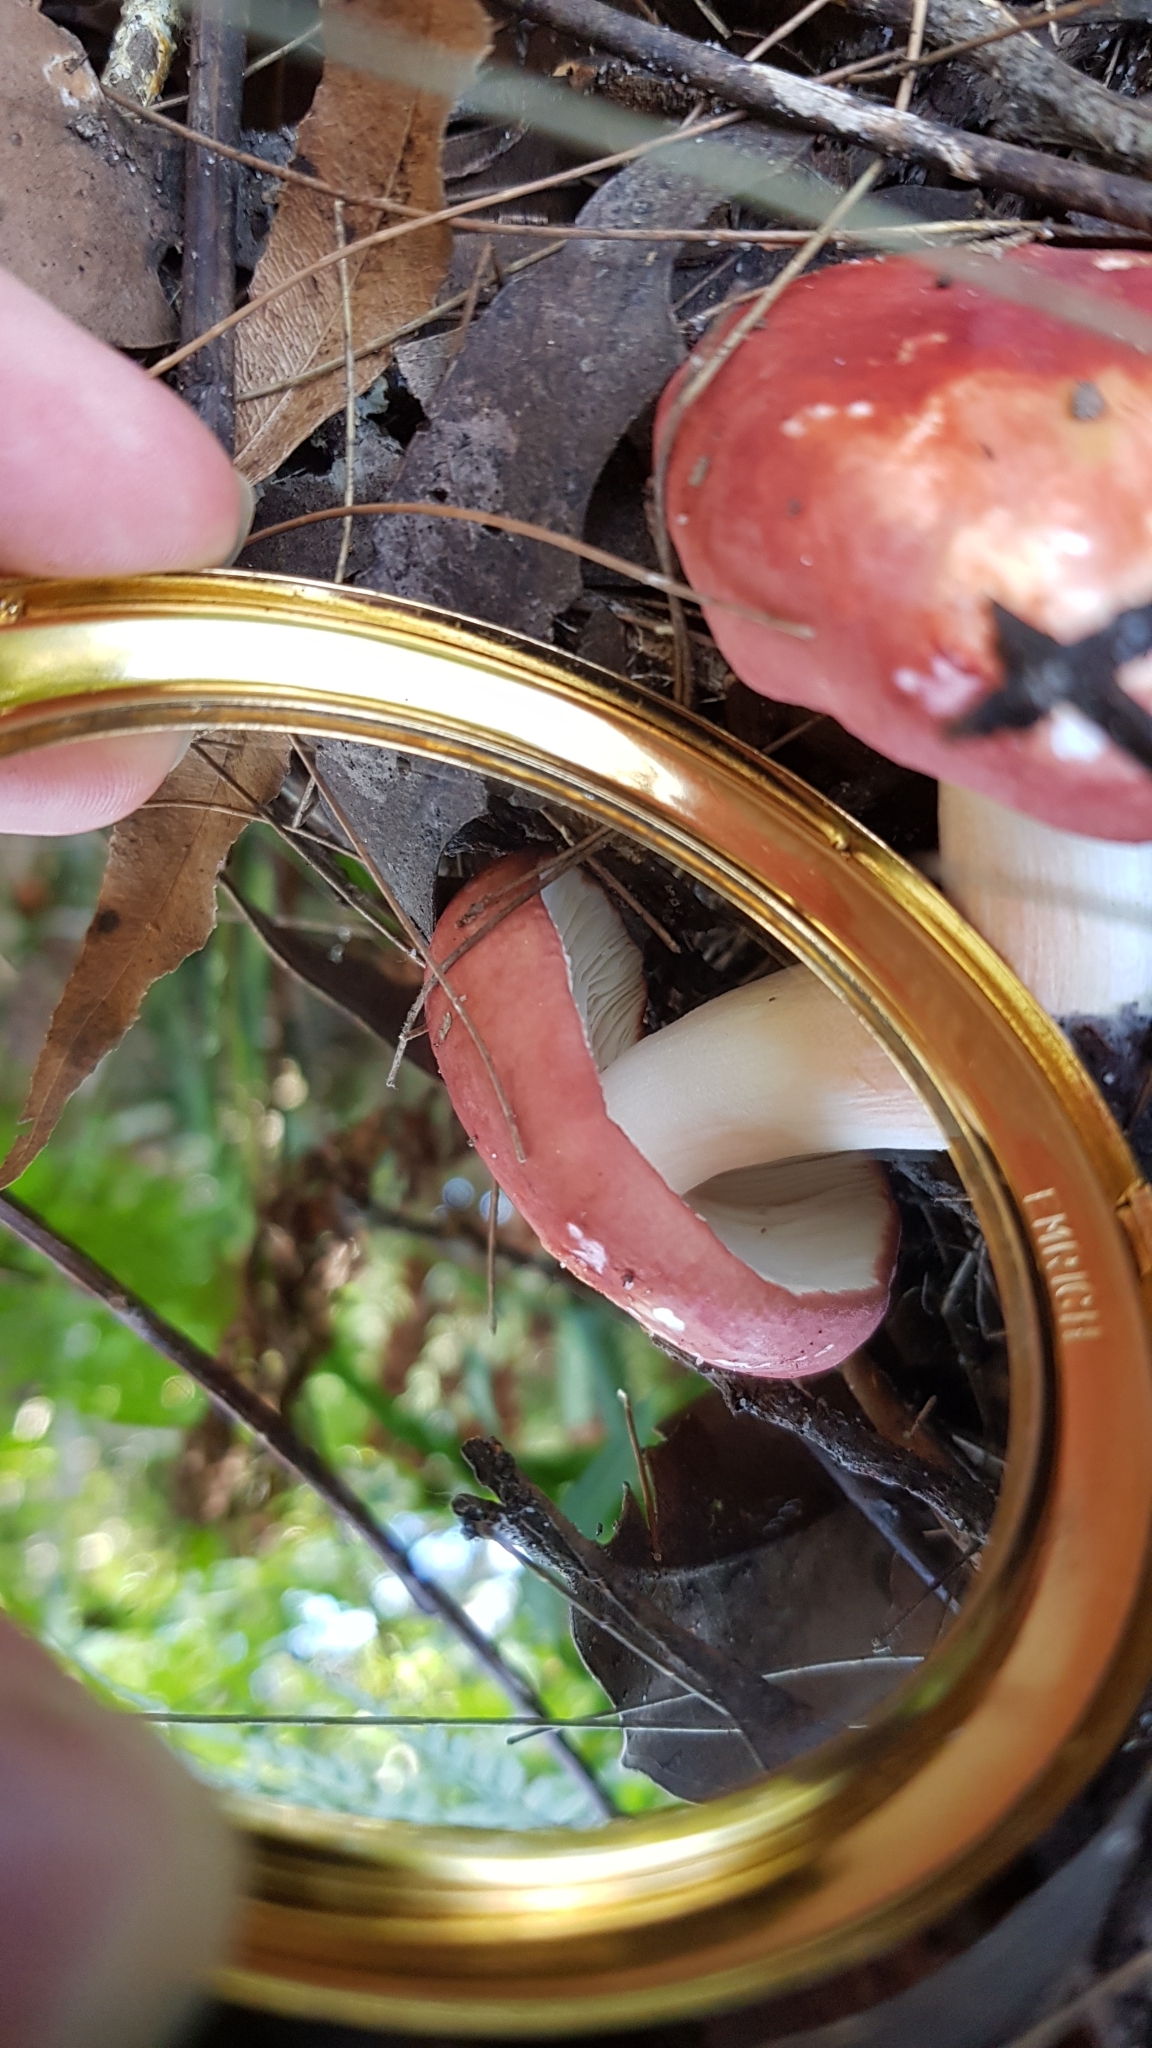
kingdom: Fungi
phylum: Basidiomycota
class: Agaricomycetes
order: Russulales
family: Russulaceae
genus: Russula
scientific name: Russula persanguinea
